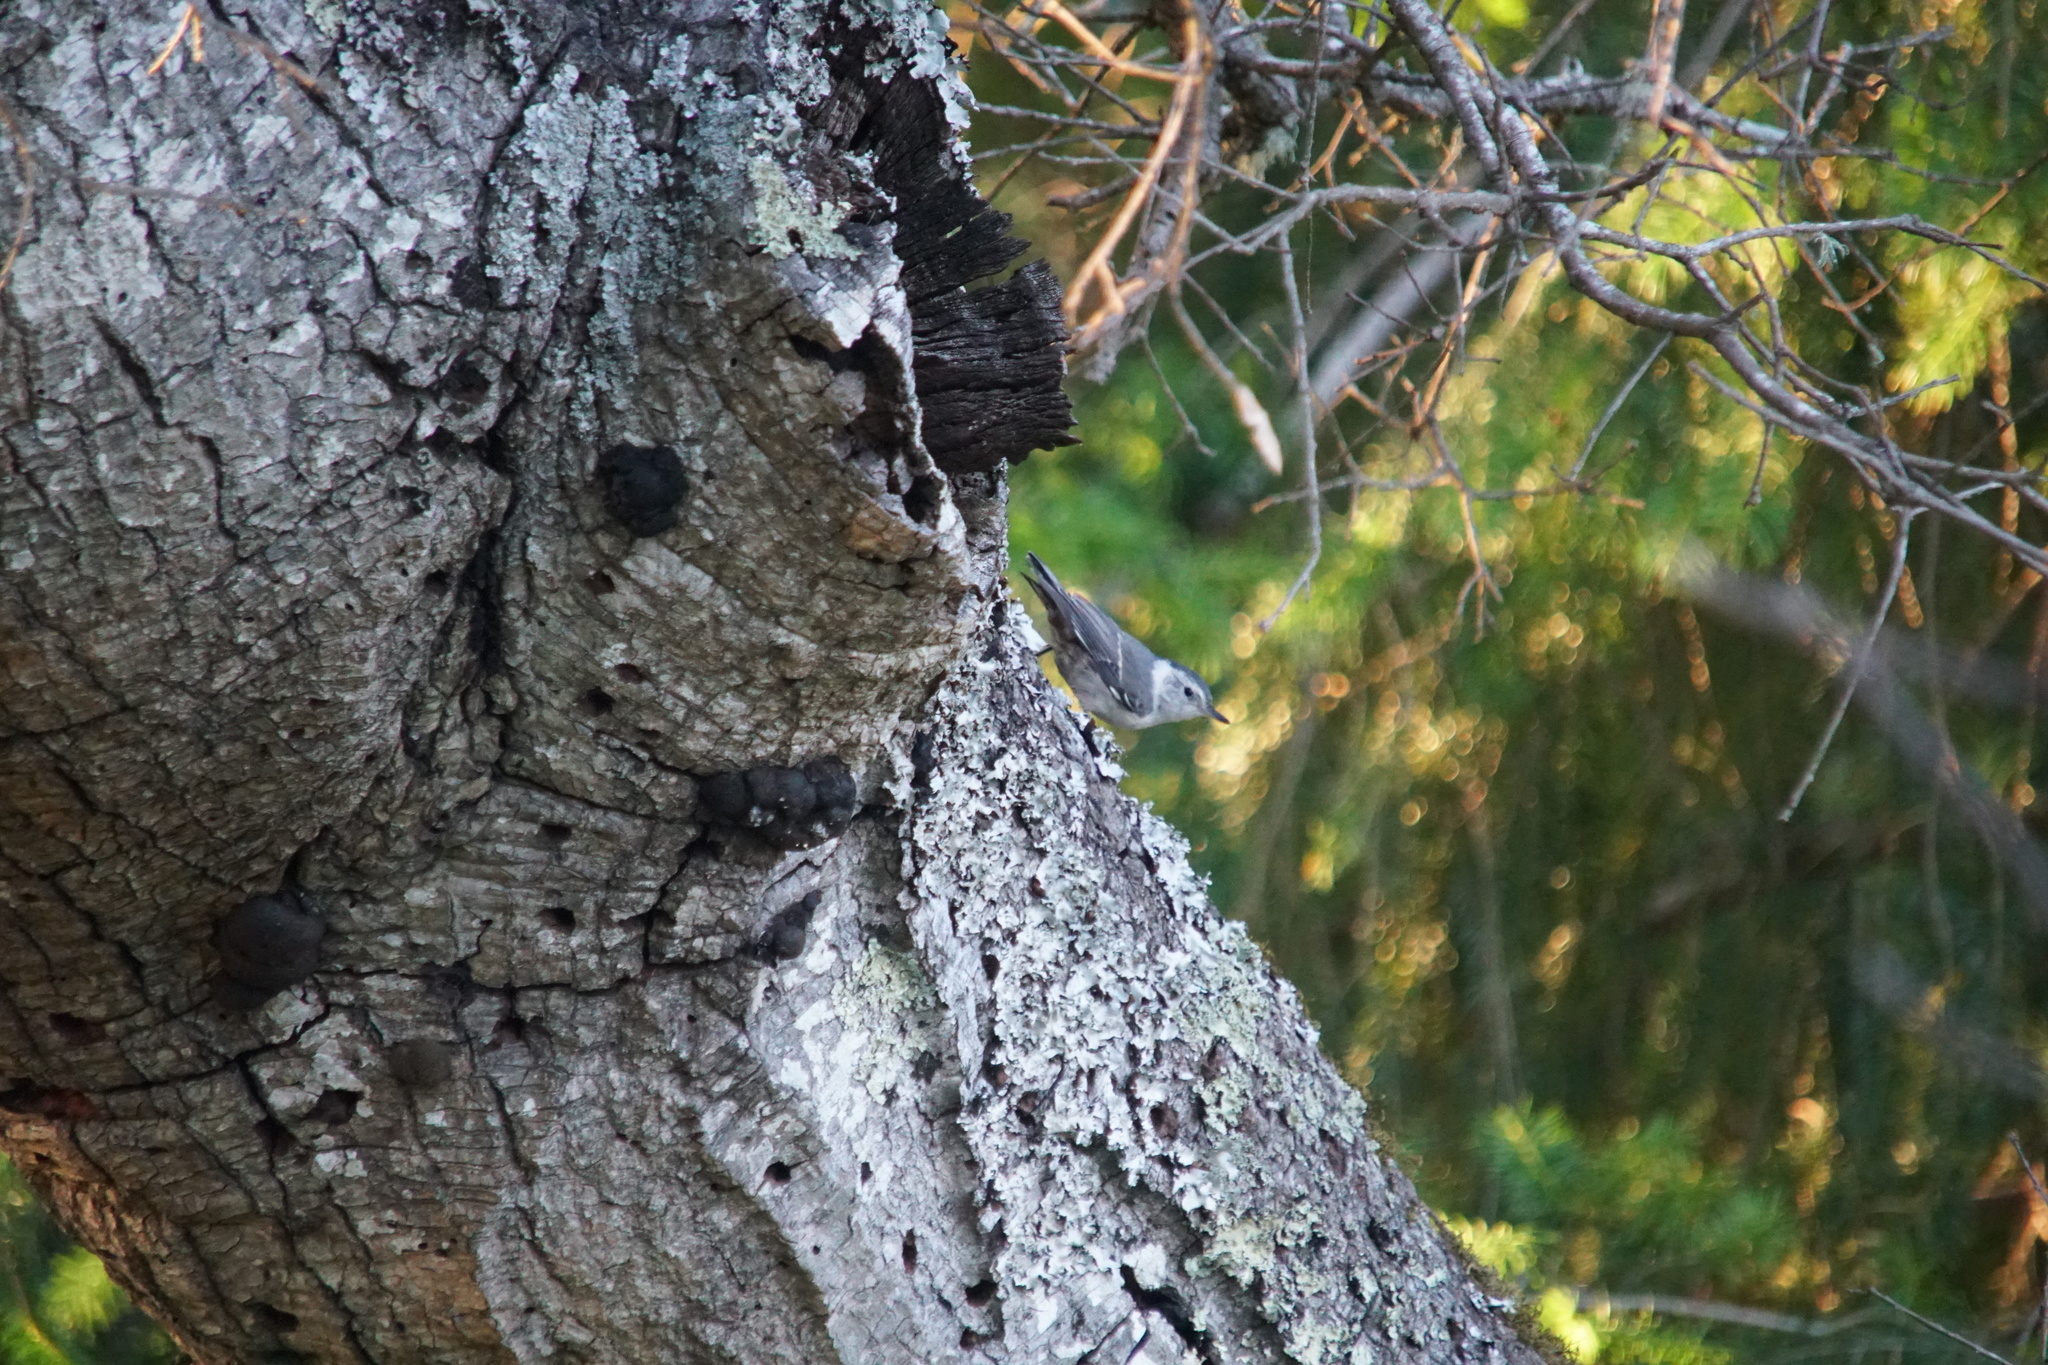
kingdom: Animalia
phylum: Chordata
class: Aves
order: Passeriformes
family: Sittidae
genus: Sitta
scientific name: Sitta carolinensis
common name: White-breasted nuthatch
